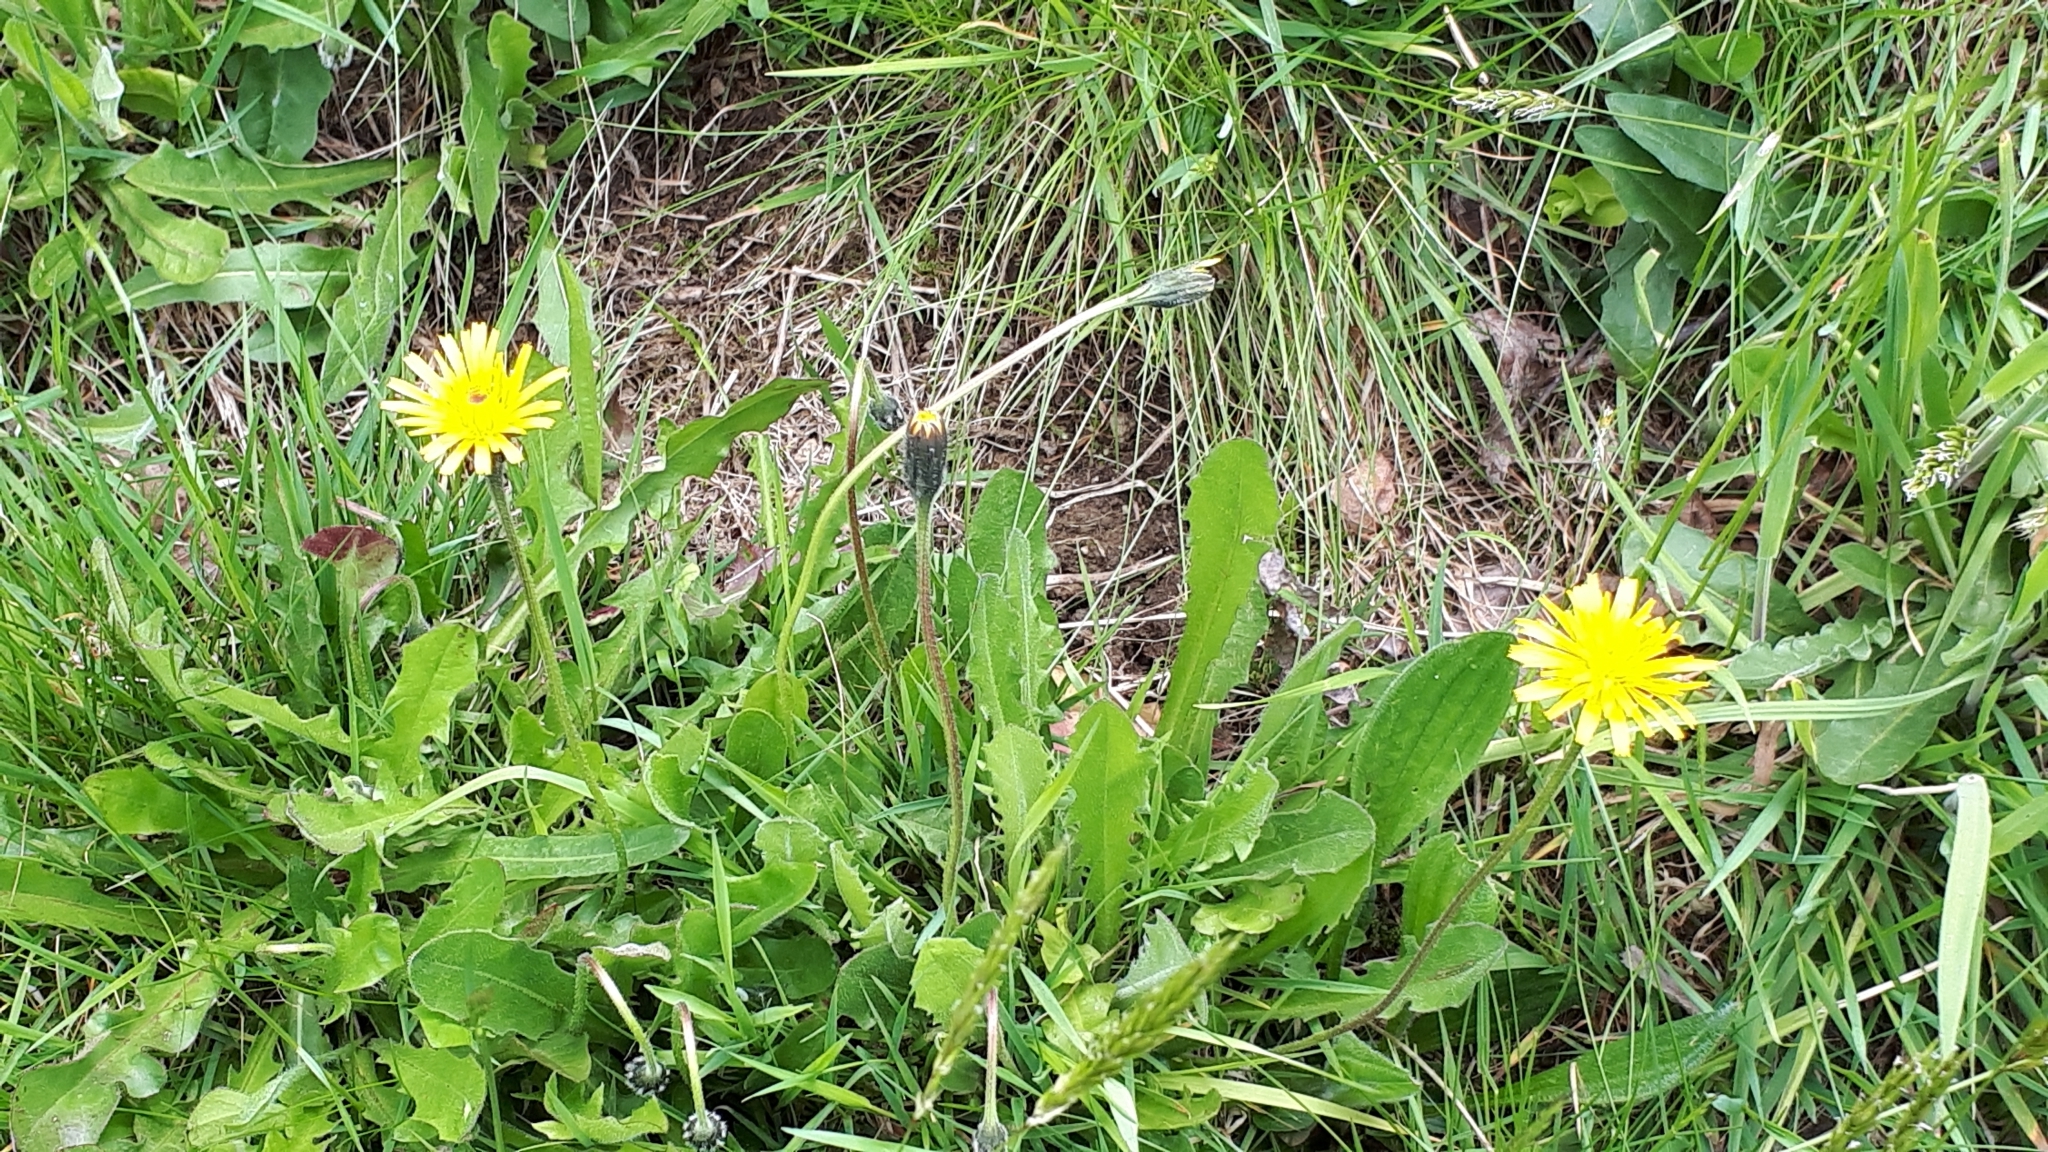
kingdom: Plantae
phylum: Tracheophyta
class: Magnoliopsida
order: Asterales
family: Asteraceae
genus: Leontodon
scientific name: Leontodon hispidus
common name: Rough hawkbit
